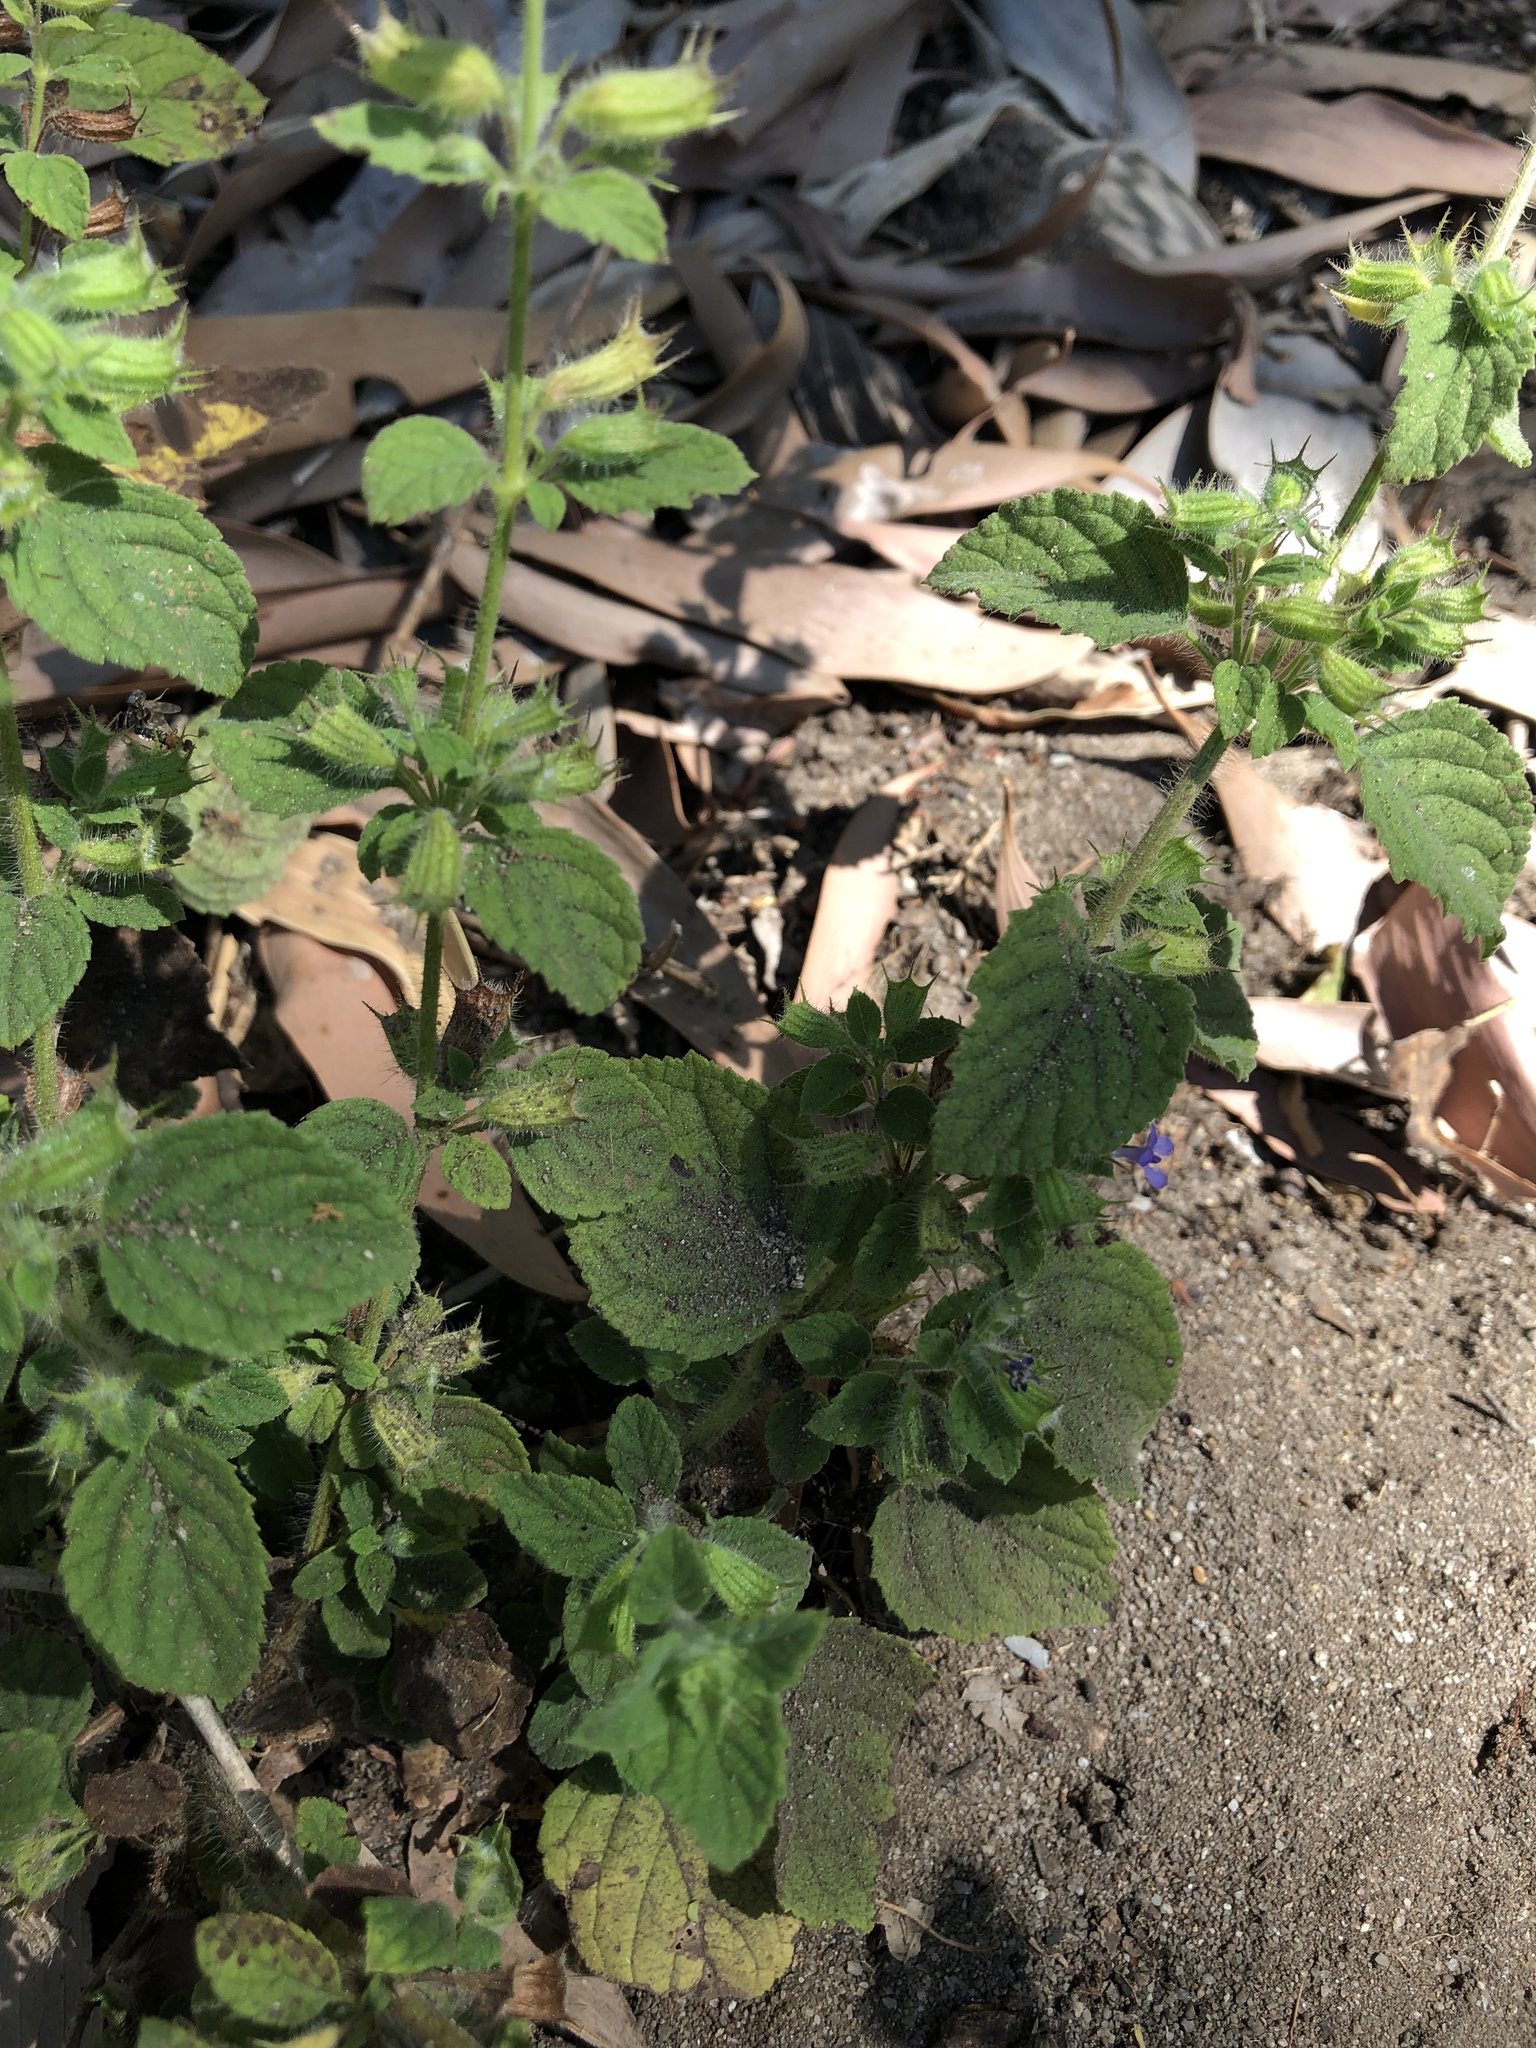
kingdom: Plantae
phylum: Tracheophyta
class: Magnoliopsida
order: Lamiales
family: Lamiaceae
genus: Mesosphaerum
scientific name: Mesosphaerum suaveolens
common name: Pignut
